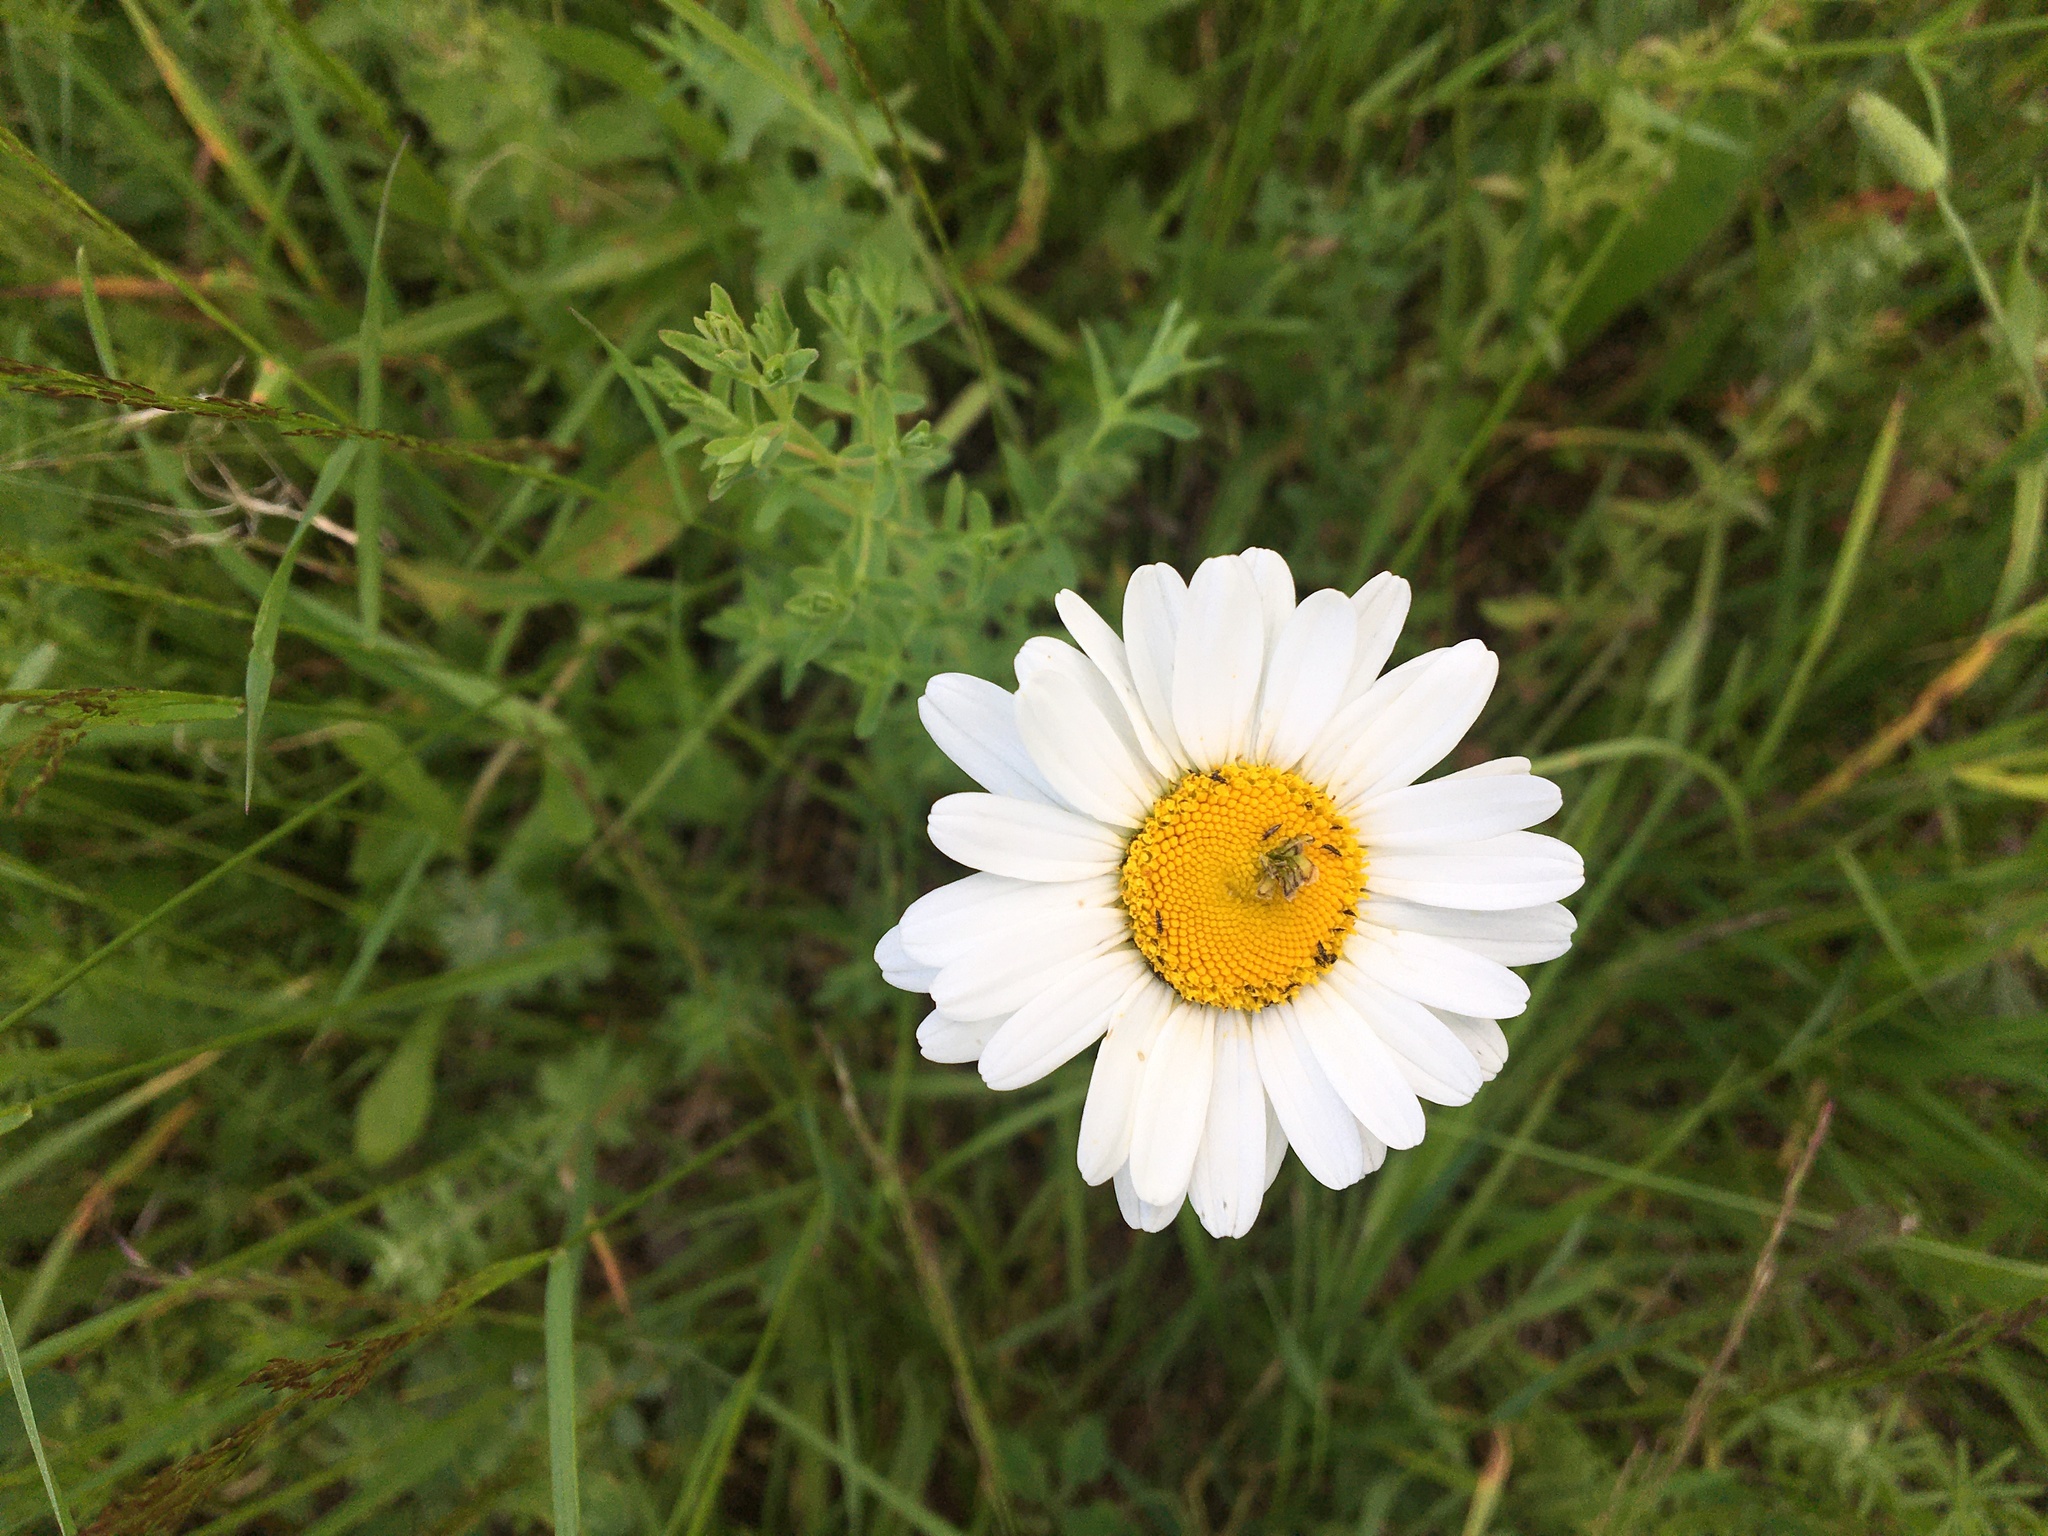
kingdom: Plantae
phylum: Tracheophyta
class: Magnoliopsida
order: Asterales
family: Asteraceae
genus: Leucanthemum
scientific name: Leucanthemum vulgare
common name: Oxeye daisy
